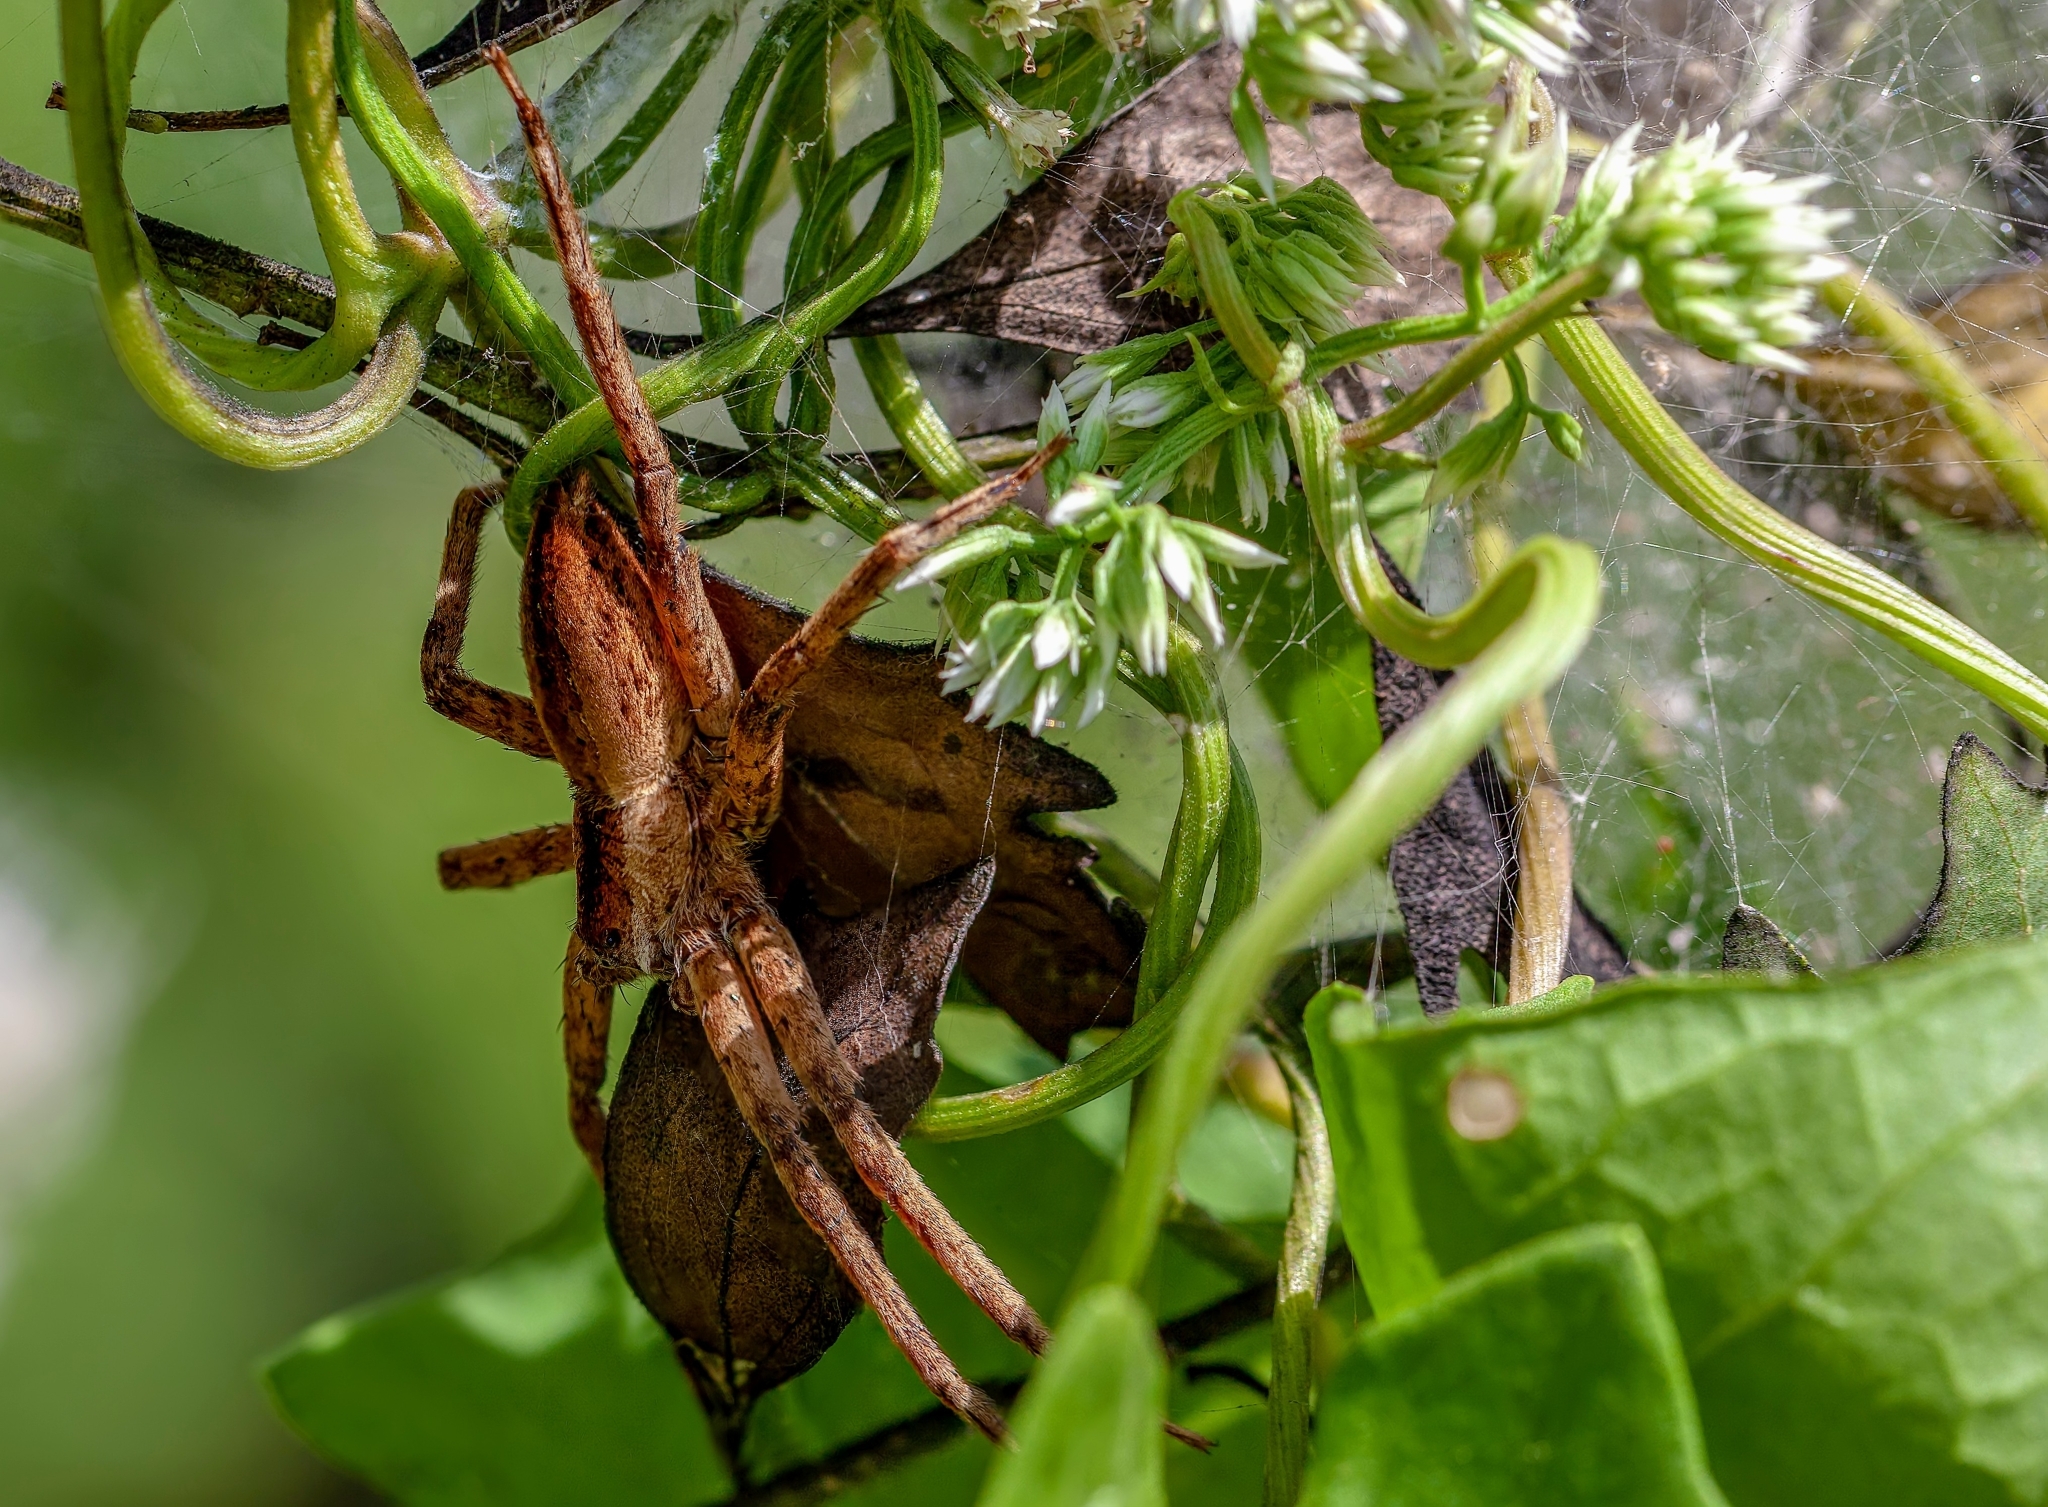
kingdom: Animalia
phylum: Arthropoda
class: Arachnida
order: Araneae
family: Pisauridae
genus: Pisaurina
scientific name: Pisaurina mira
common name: American nursery web spider
